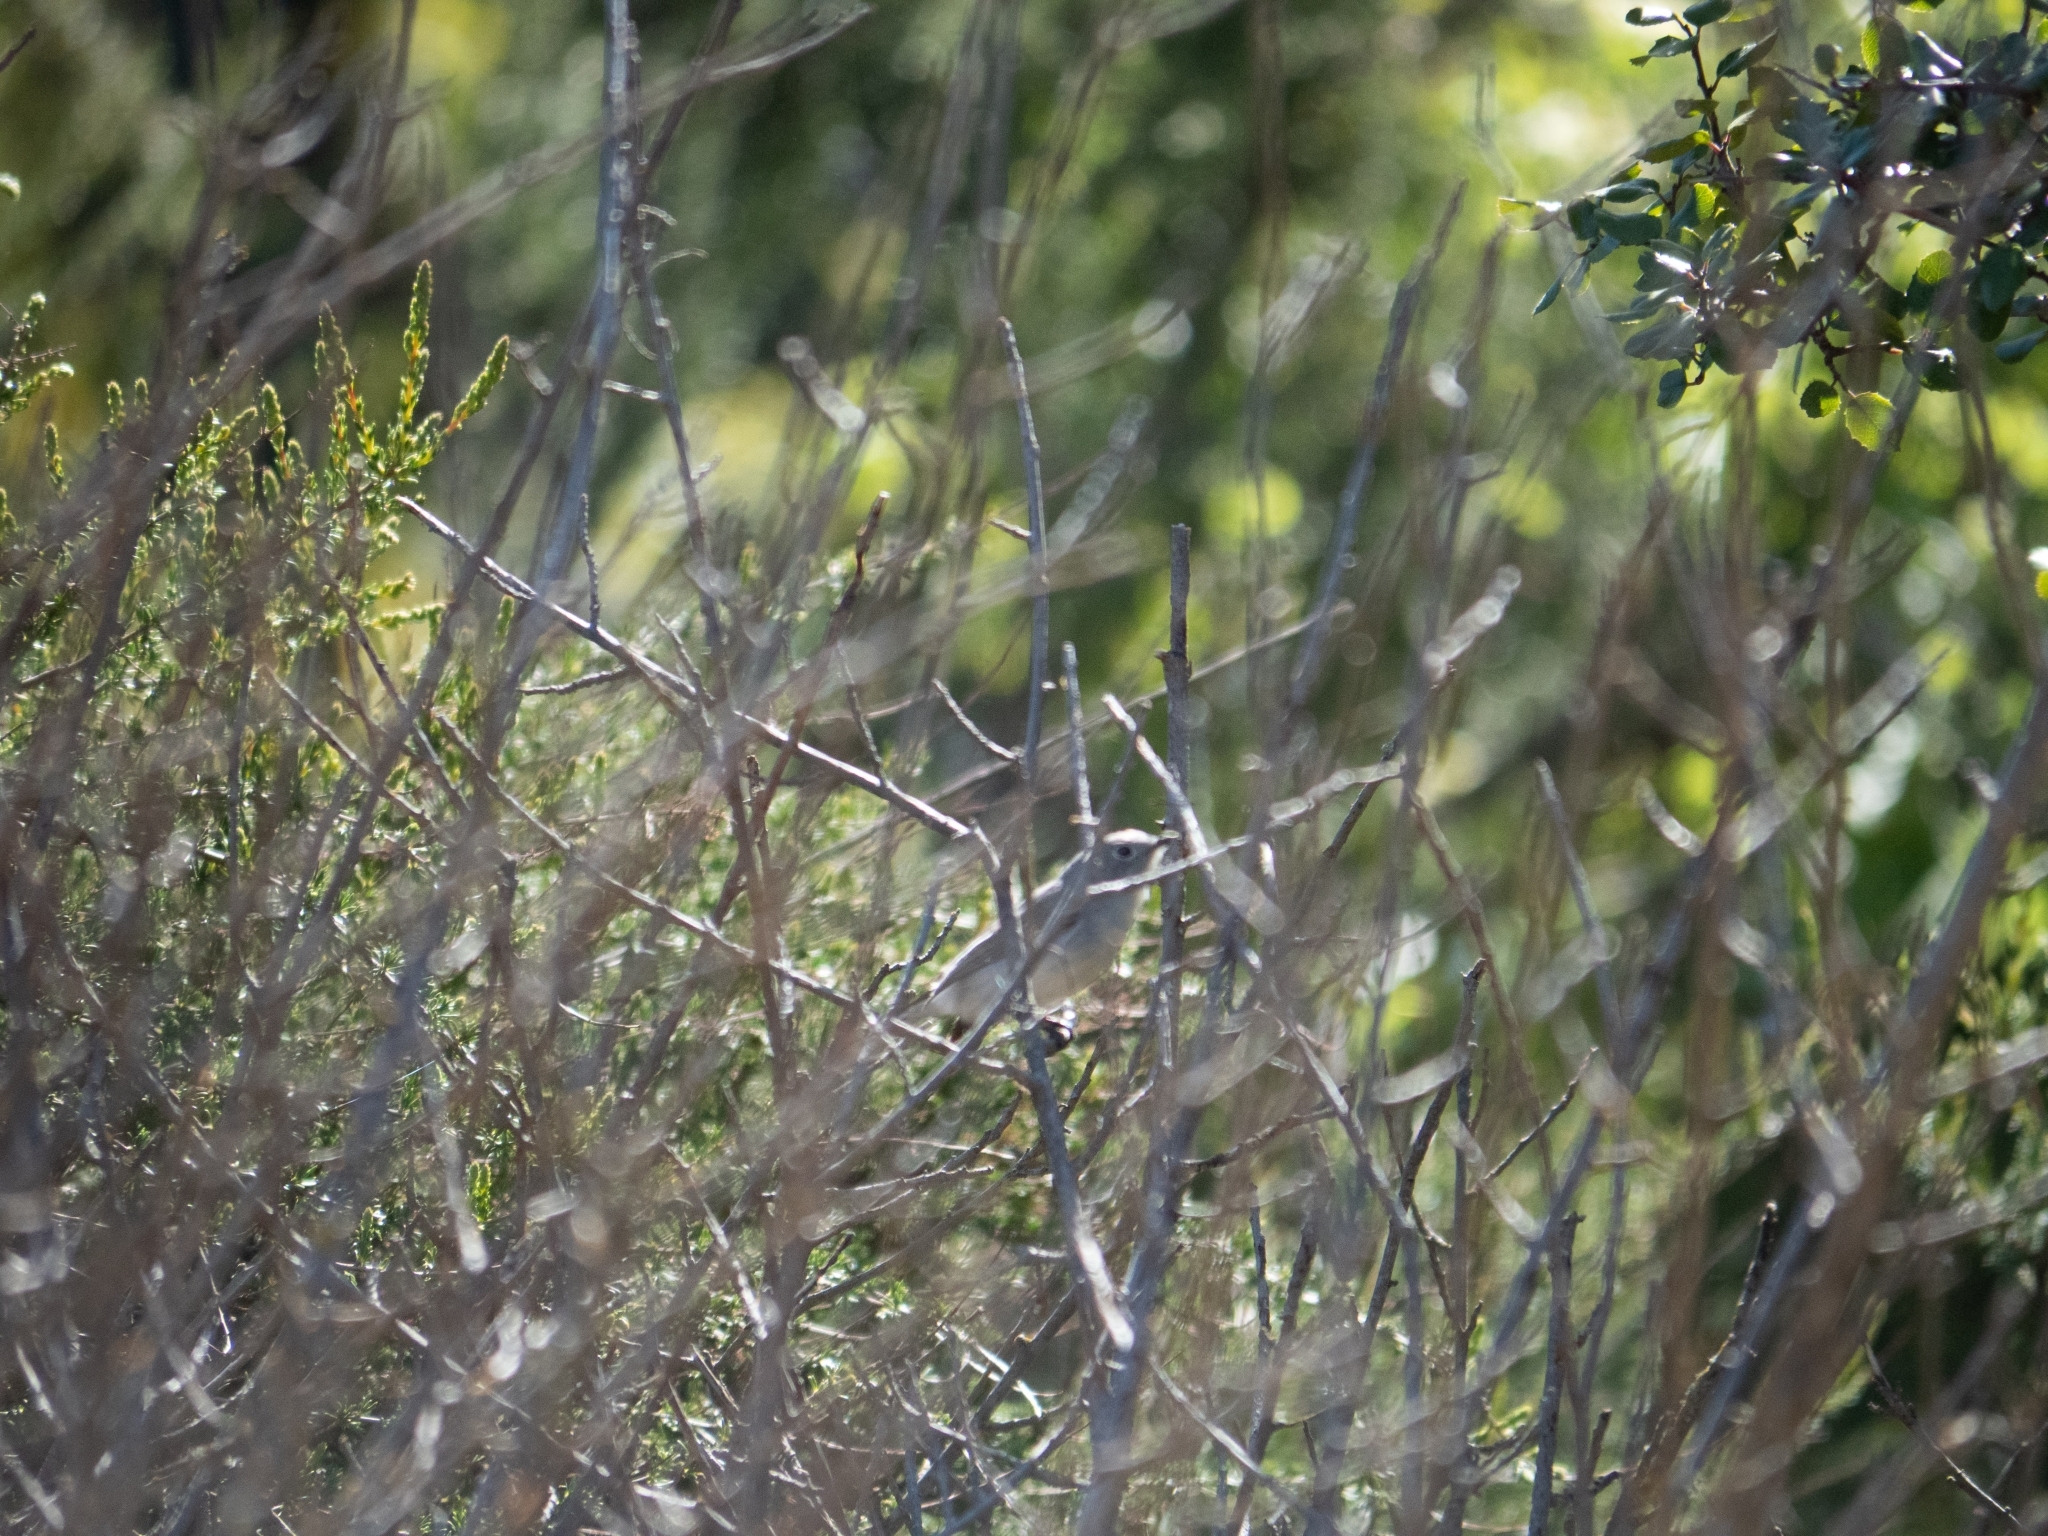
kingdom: Animalia
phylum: Chordata
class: Aves
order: Passeriformes
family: Polioptilidae
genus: Polioptila
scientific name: Polioptila caerulea
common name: Blue-gray gnatcatcher
